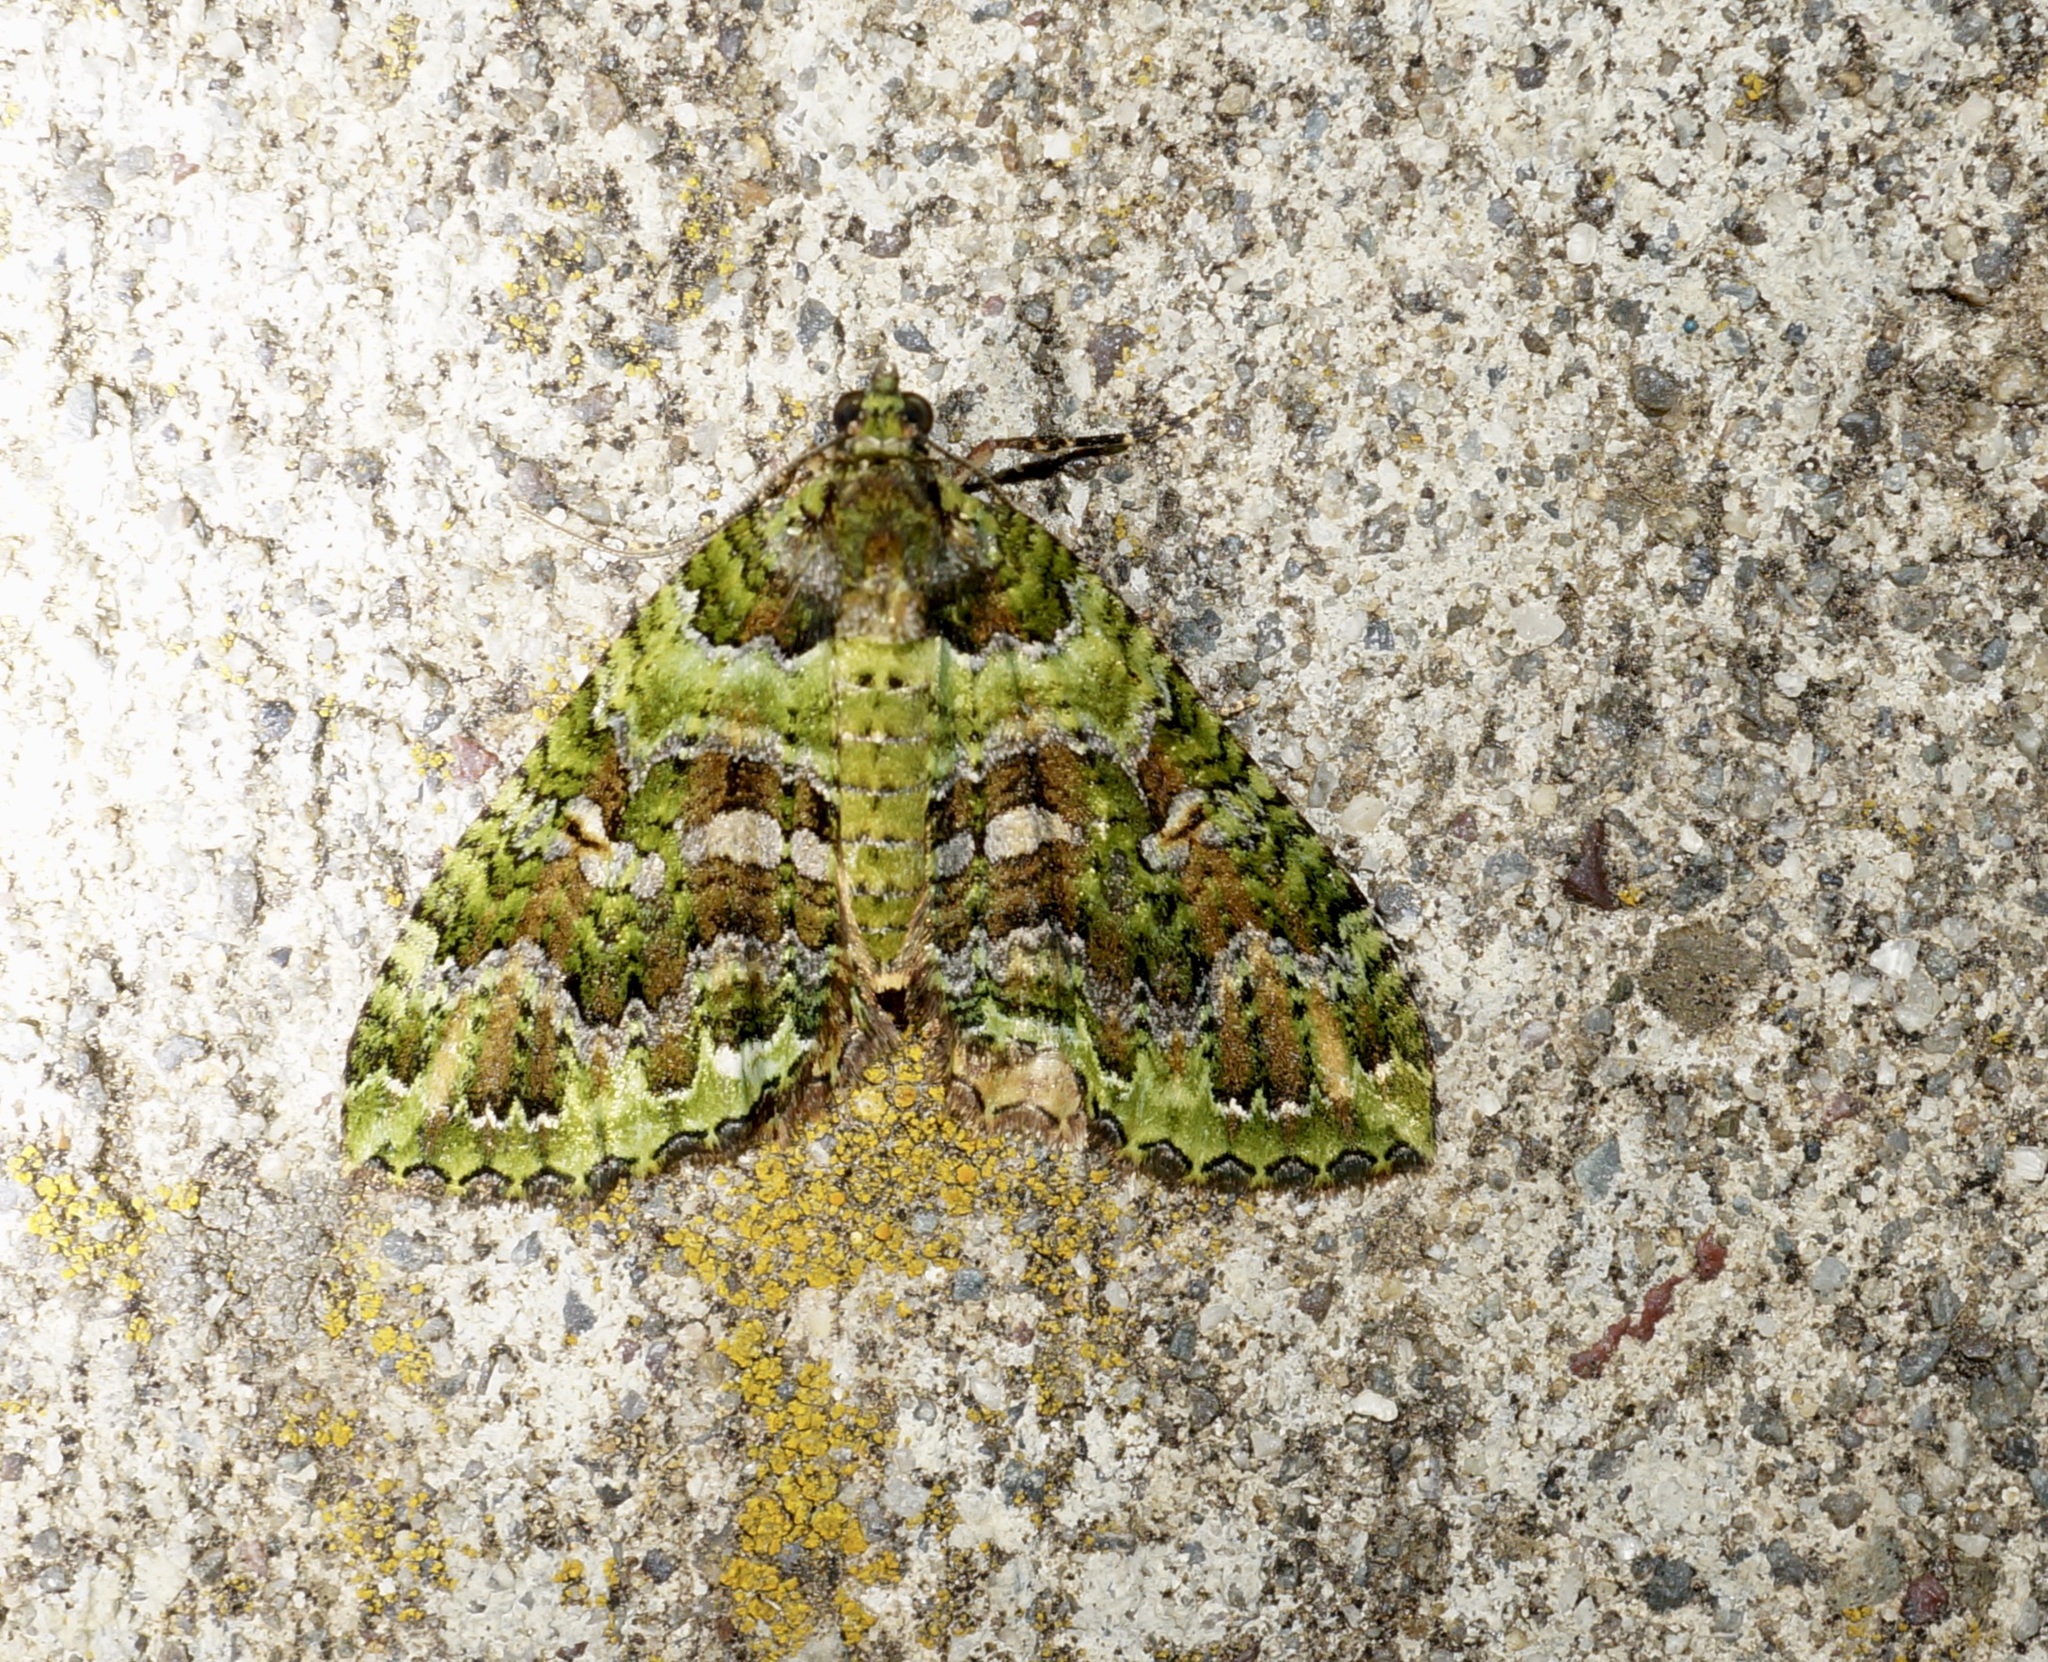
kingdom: Animalia
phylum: Arthropoda
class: Insecta
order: Lepidoptera
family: Geometridae
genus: Austrocidaria
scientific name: Austrocidaria similata
